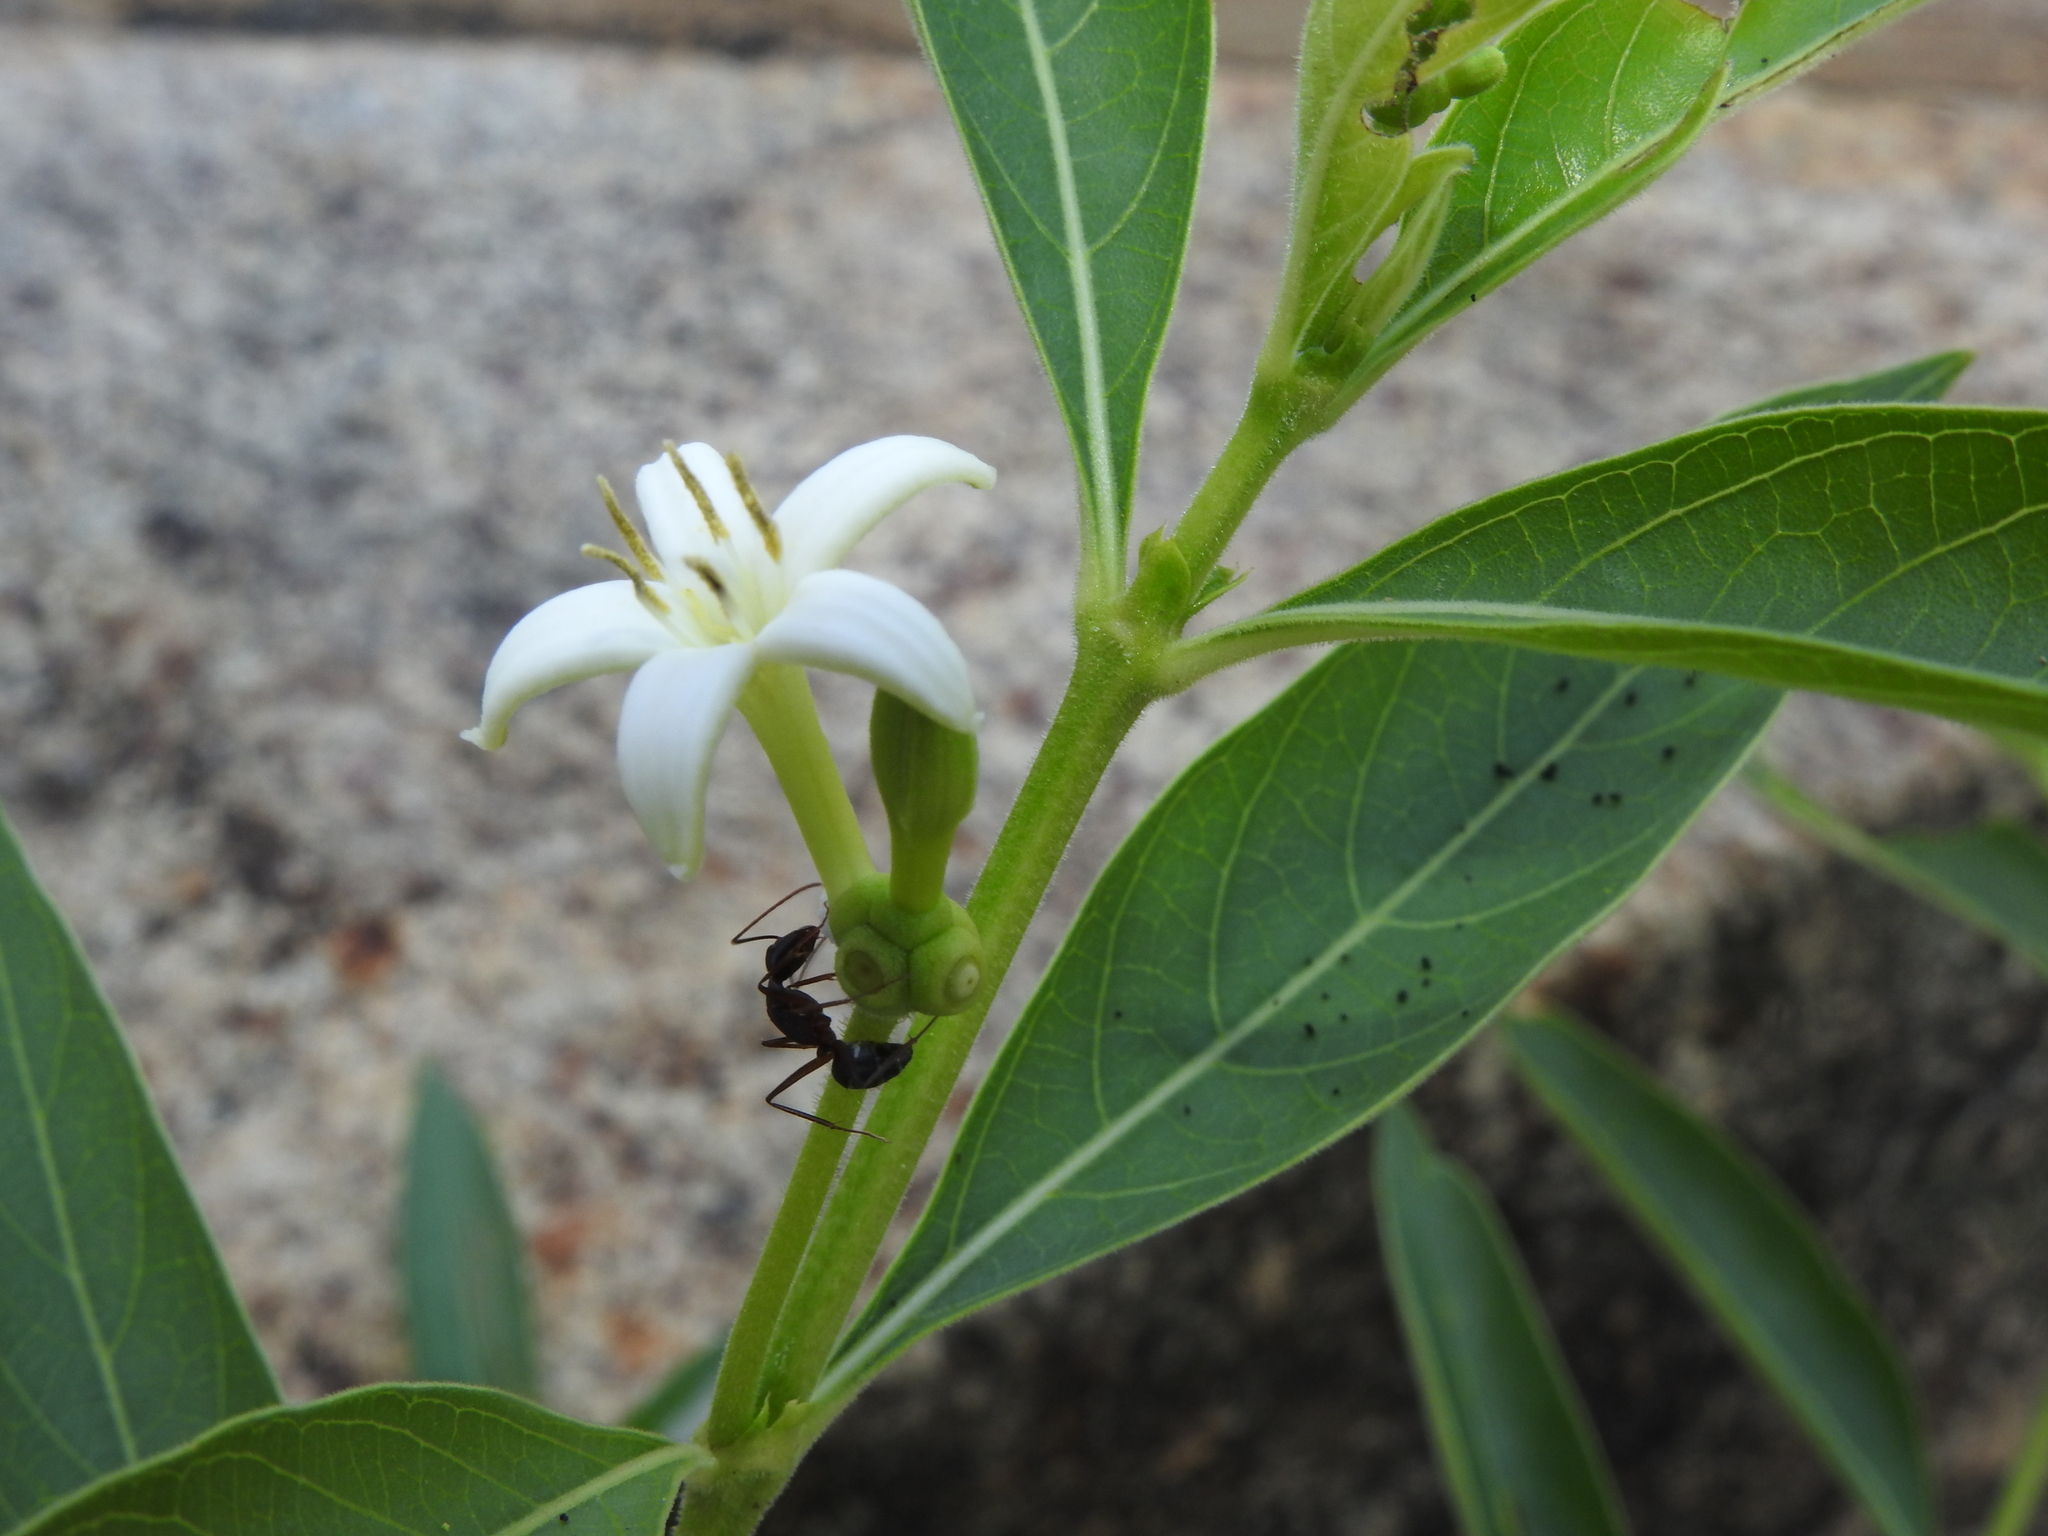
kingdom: Animalia
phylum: Arthropoda
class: Insecta
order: Hymenoptera
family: Formicidae
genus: Camponotus
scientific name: Camponotus compressus
